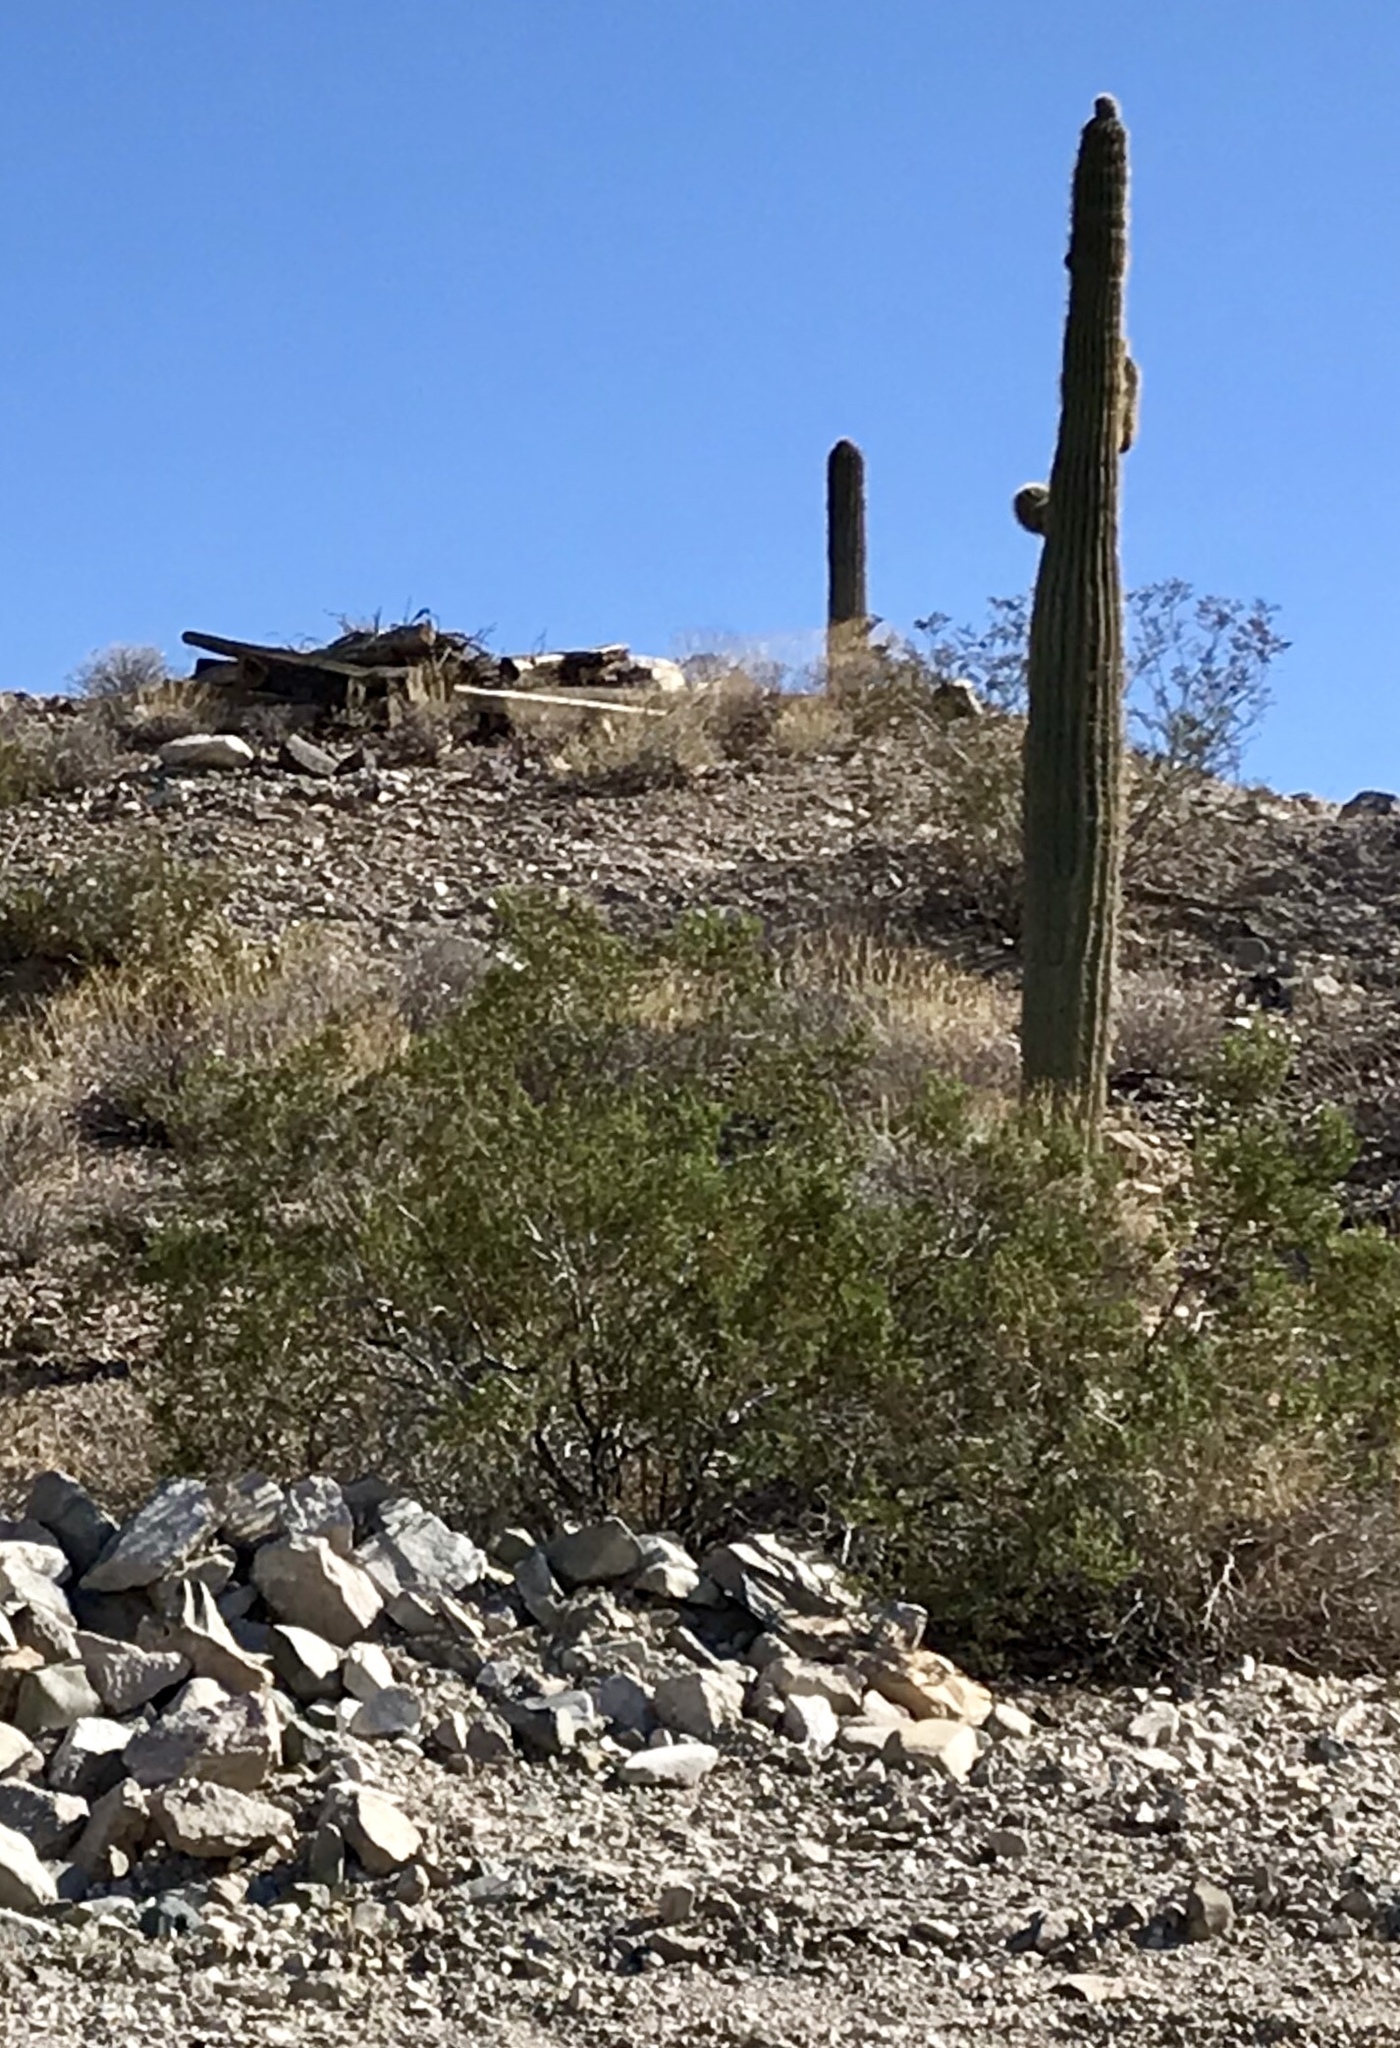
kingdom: Plantae
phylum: Tracheophyta
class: Magnoliopsida
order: Zygophyllales
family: Zygophyllaceae
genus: Larrea
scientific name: Larrea tridentata
